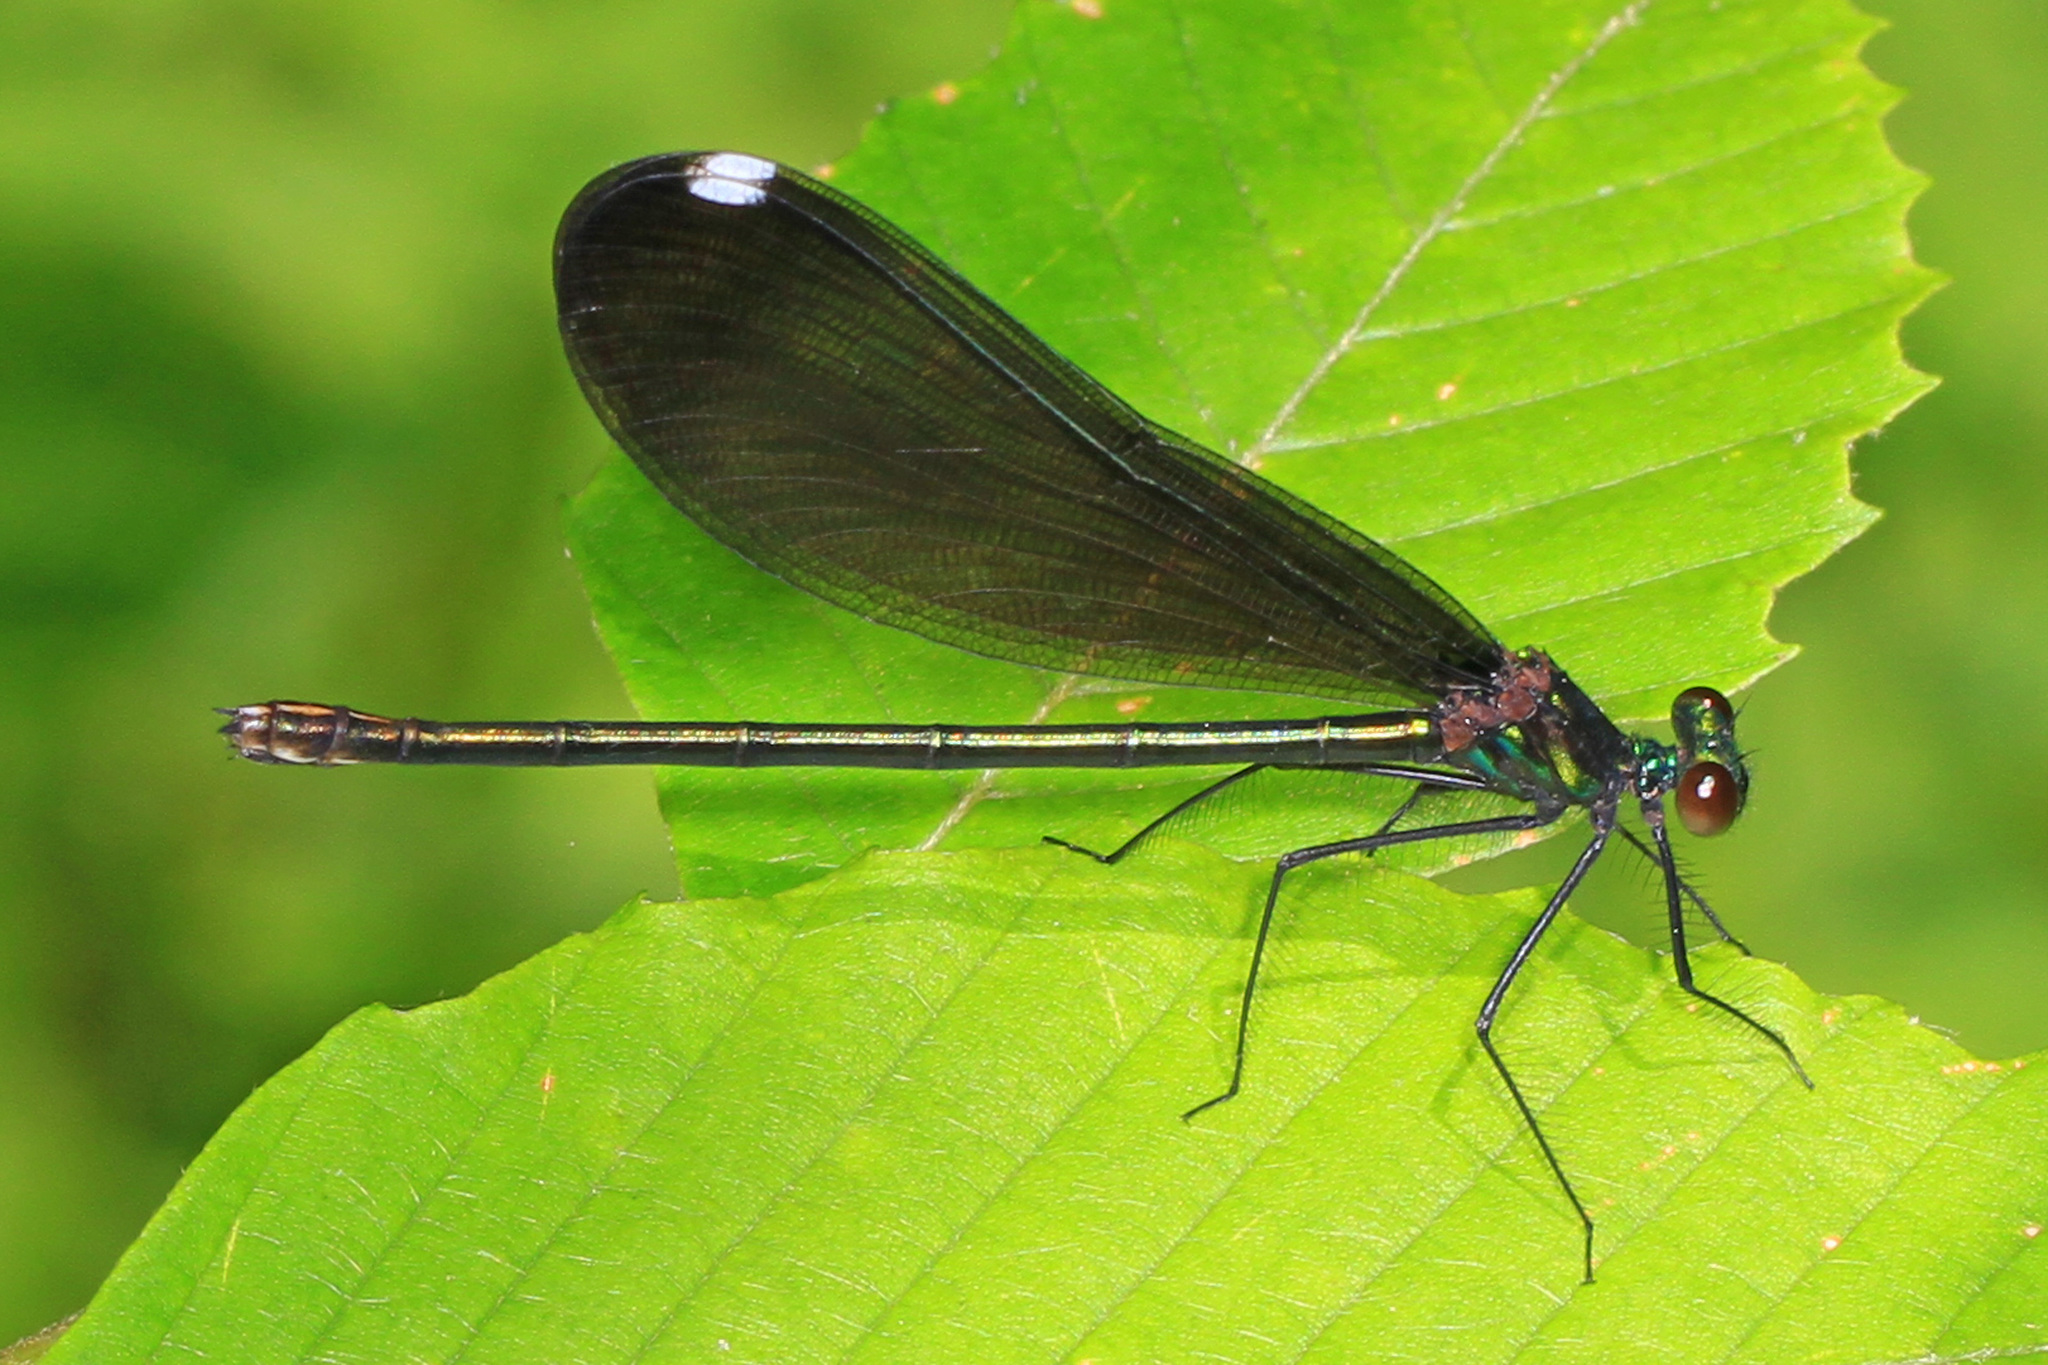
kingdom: Animalia
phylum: Arthropoda
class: Insecta
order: Odonata
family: Calopterygidae
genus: Calopteryx
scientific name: Calopteryx maculata
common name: Ebony jewelwing
